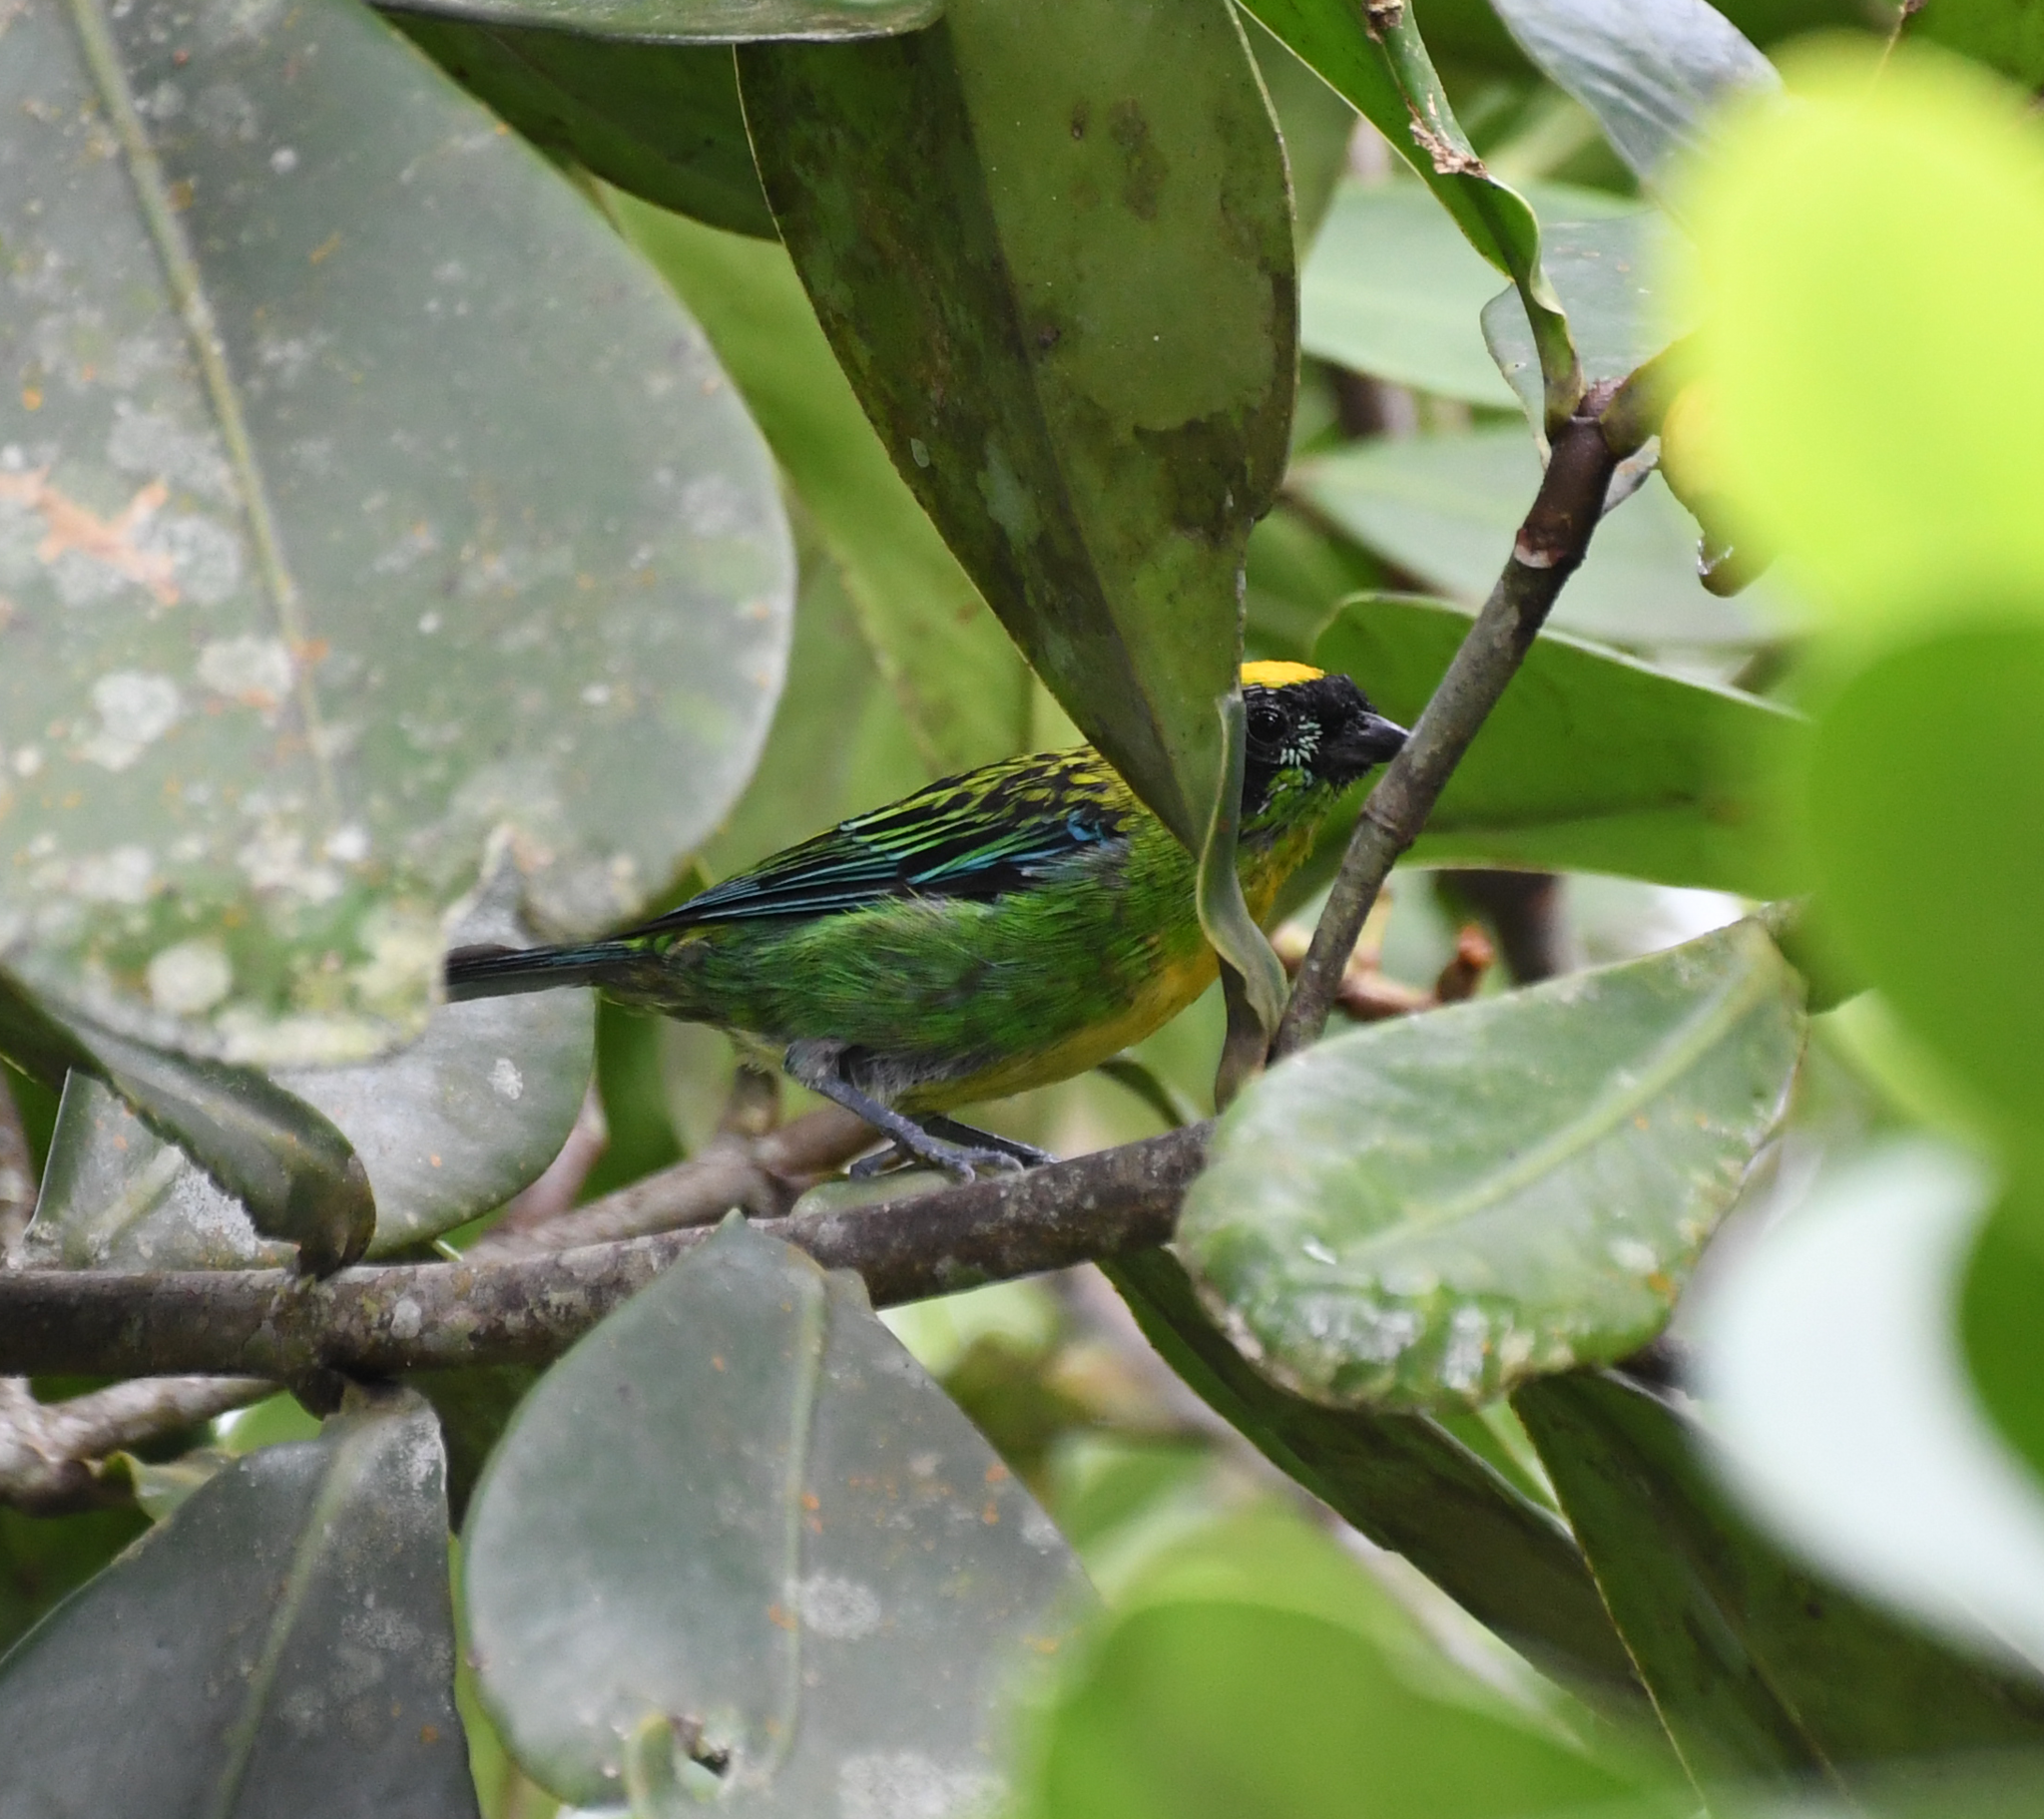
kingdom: Animalia
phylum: Chordata
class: Aves
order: Passeriformes
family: Thraupidae
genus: Tangara
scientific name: Tangara schrankii
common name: Green-and-gold tanager
